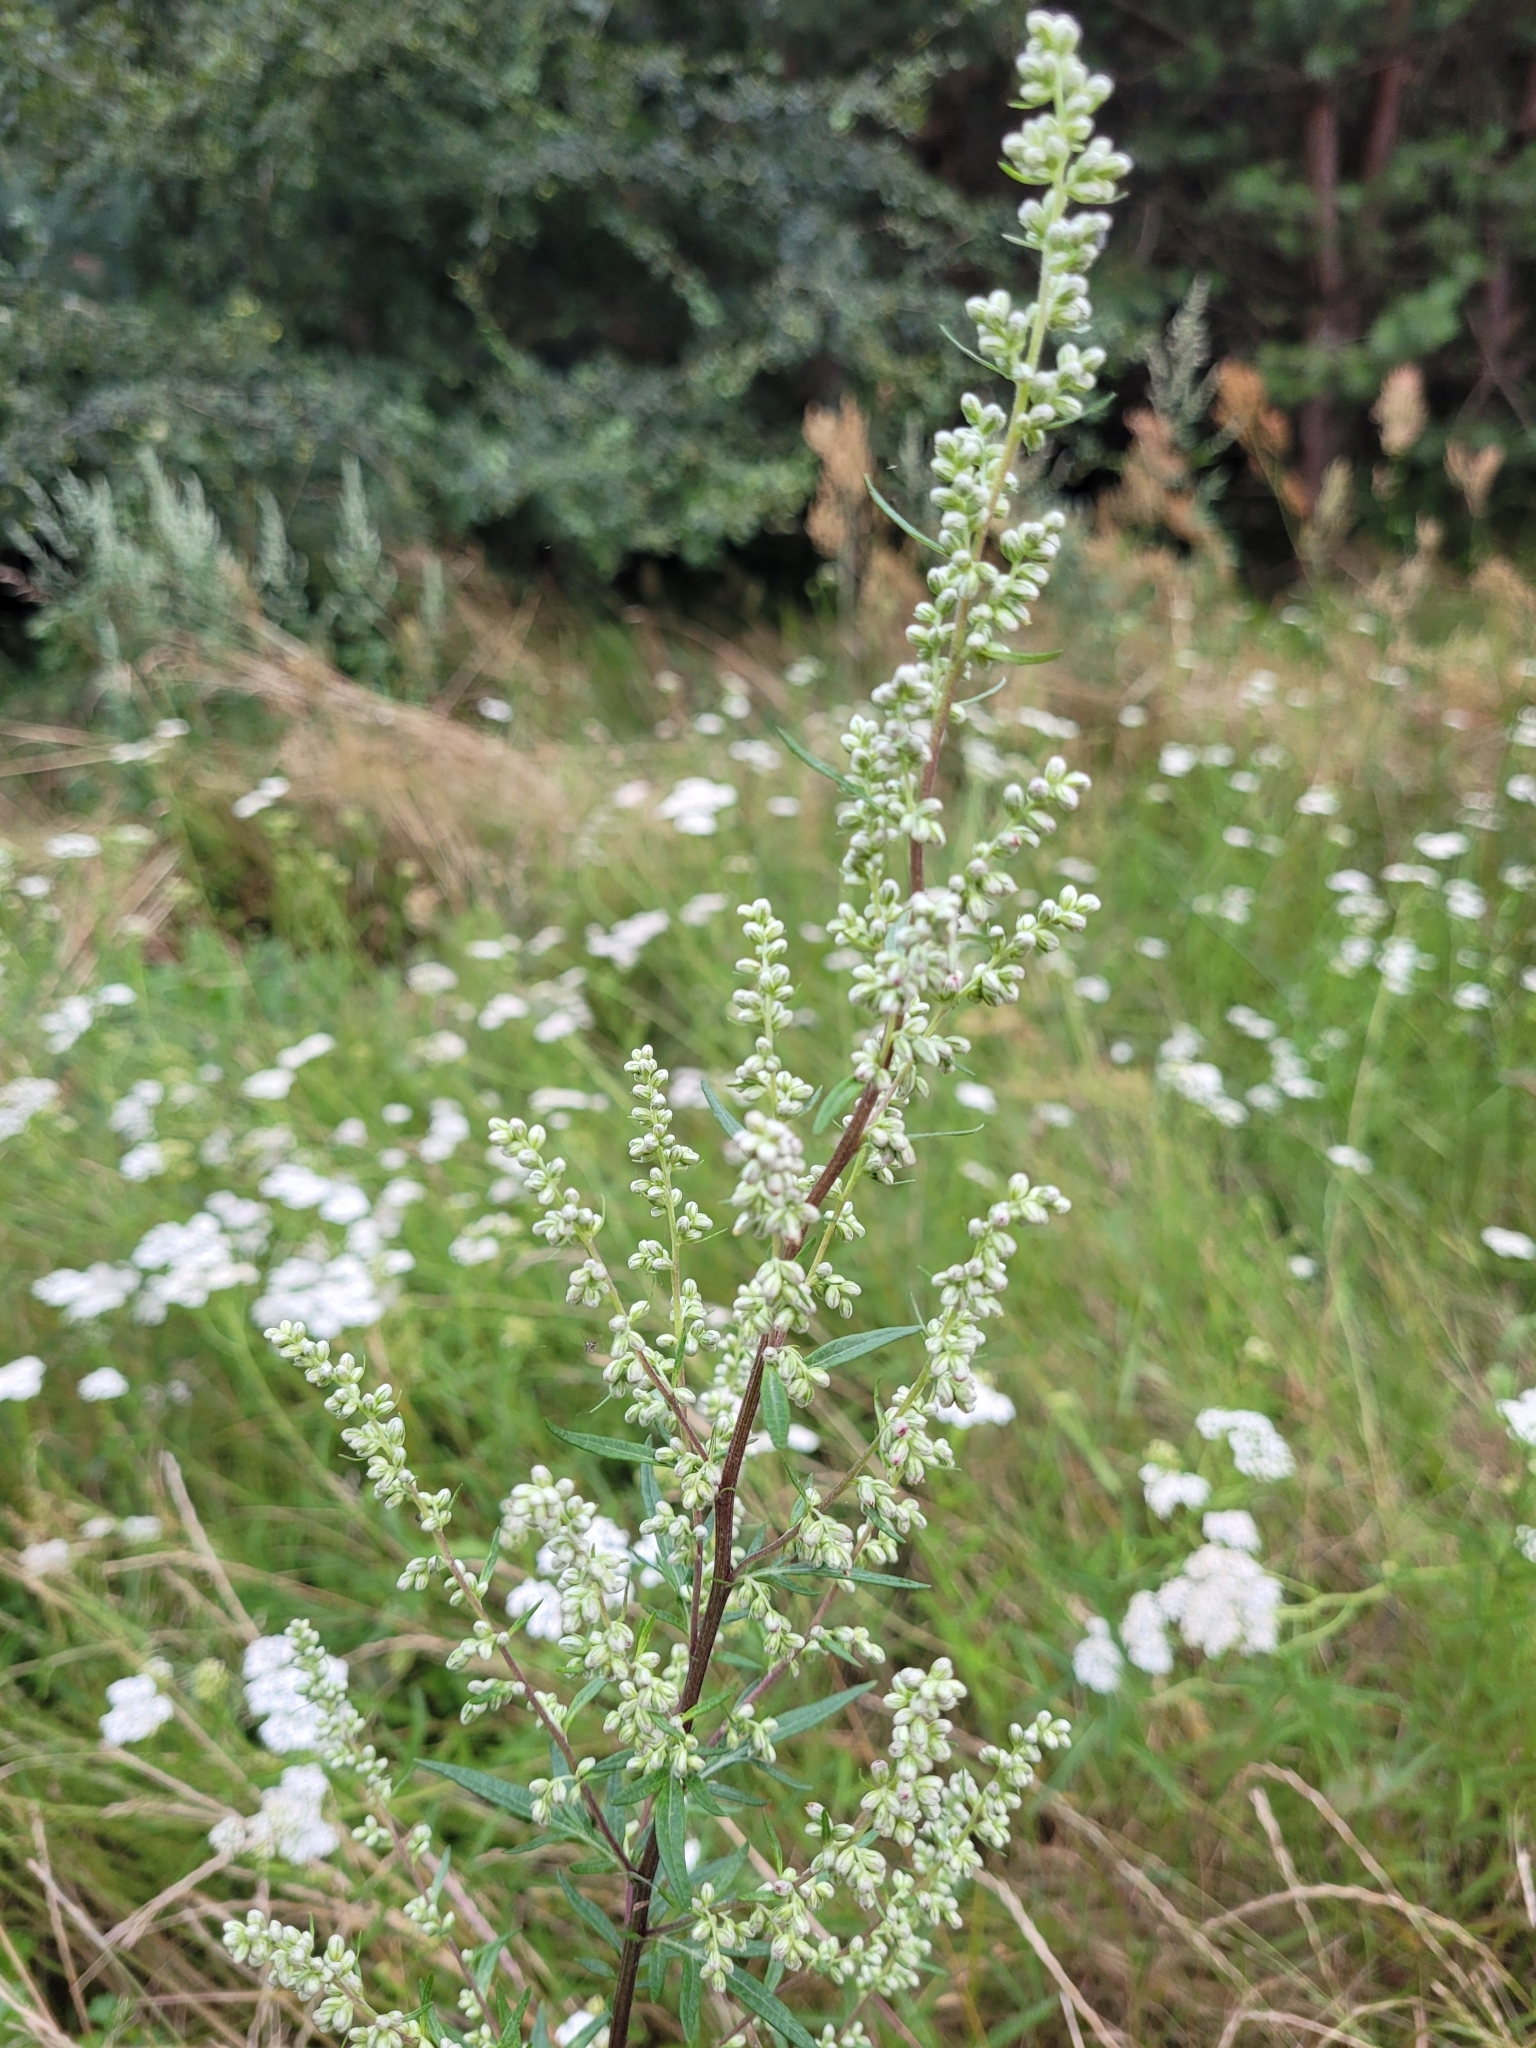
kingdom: Plantae
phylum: Tracheophyta
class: Magnoliopsida
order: Asterales
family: Asteraceae
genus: Artemisia
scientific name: Artemisia vulgaris
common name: Mugwort
